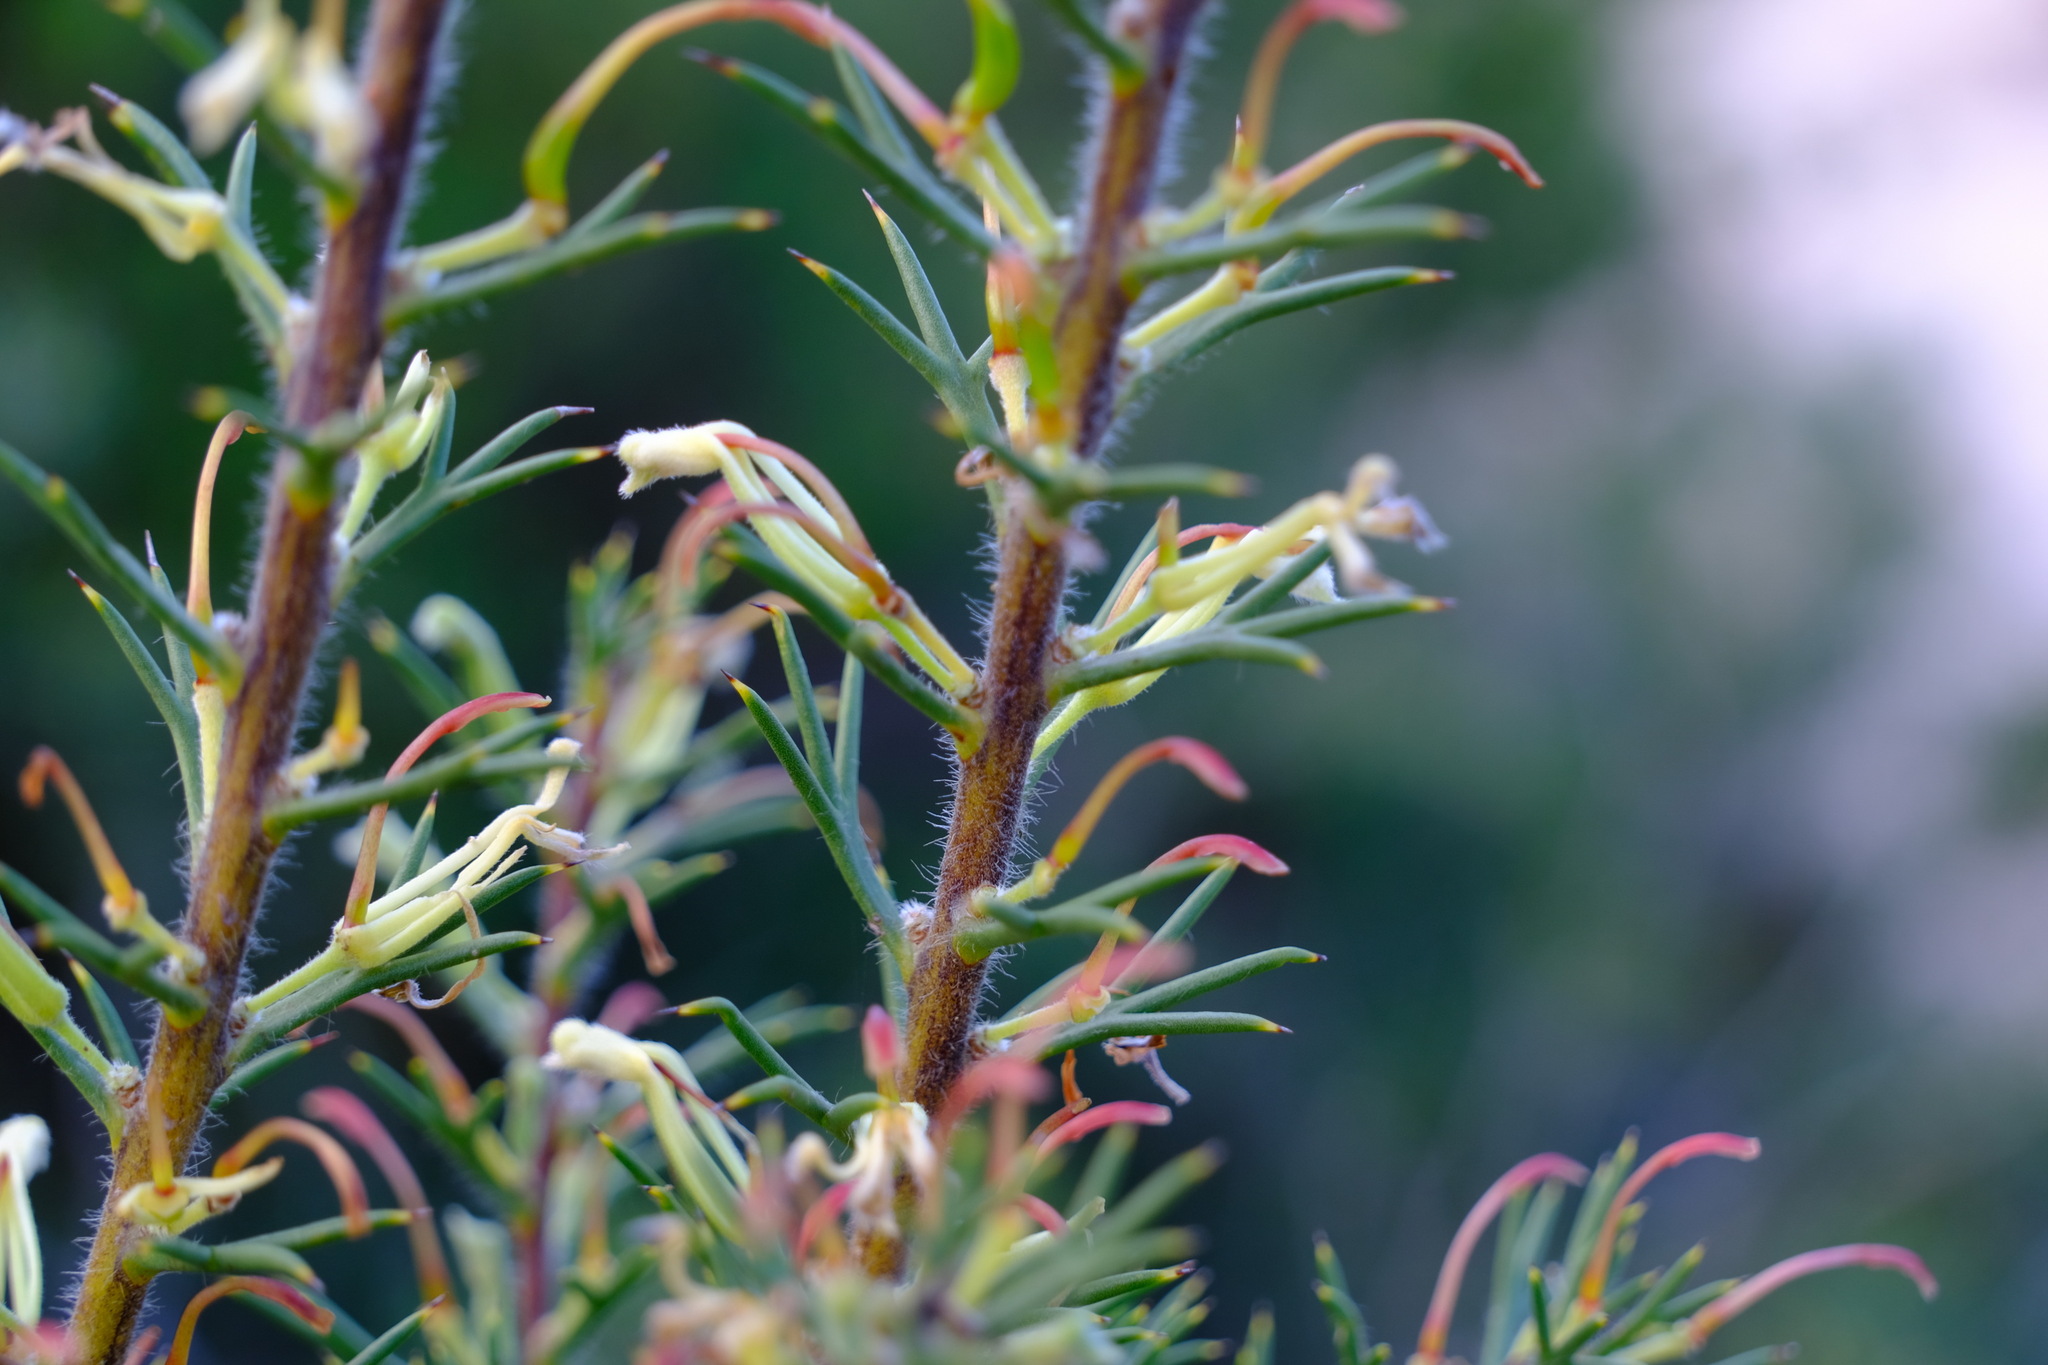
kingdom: Plantae
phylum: Tracheophyta
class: Magnoliopsida
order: Proteales
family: Proteaceae
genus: Hakea
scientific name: Hakea longiflora
